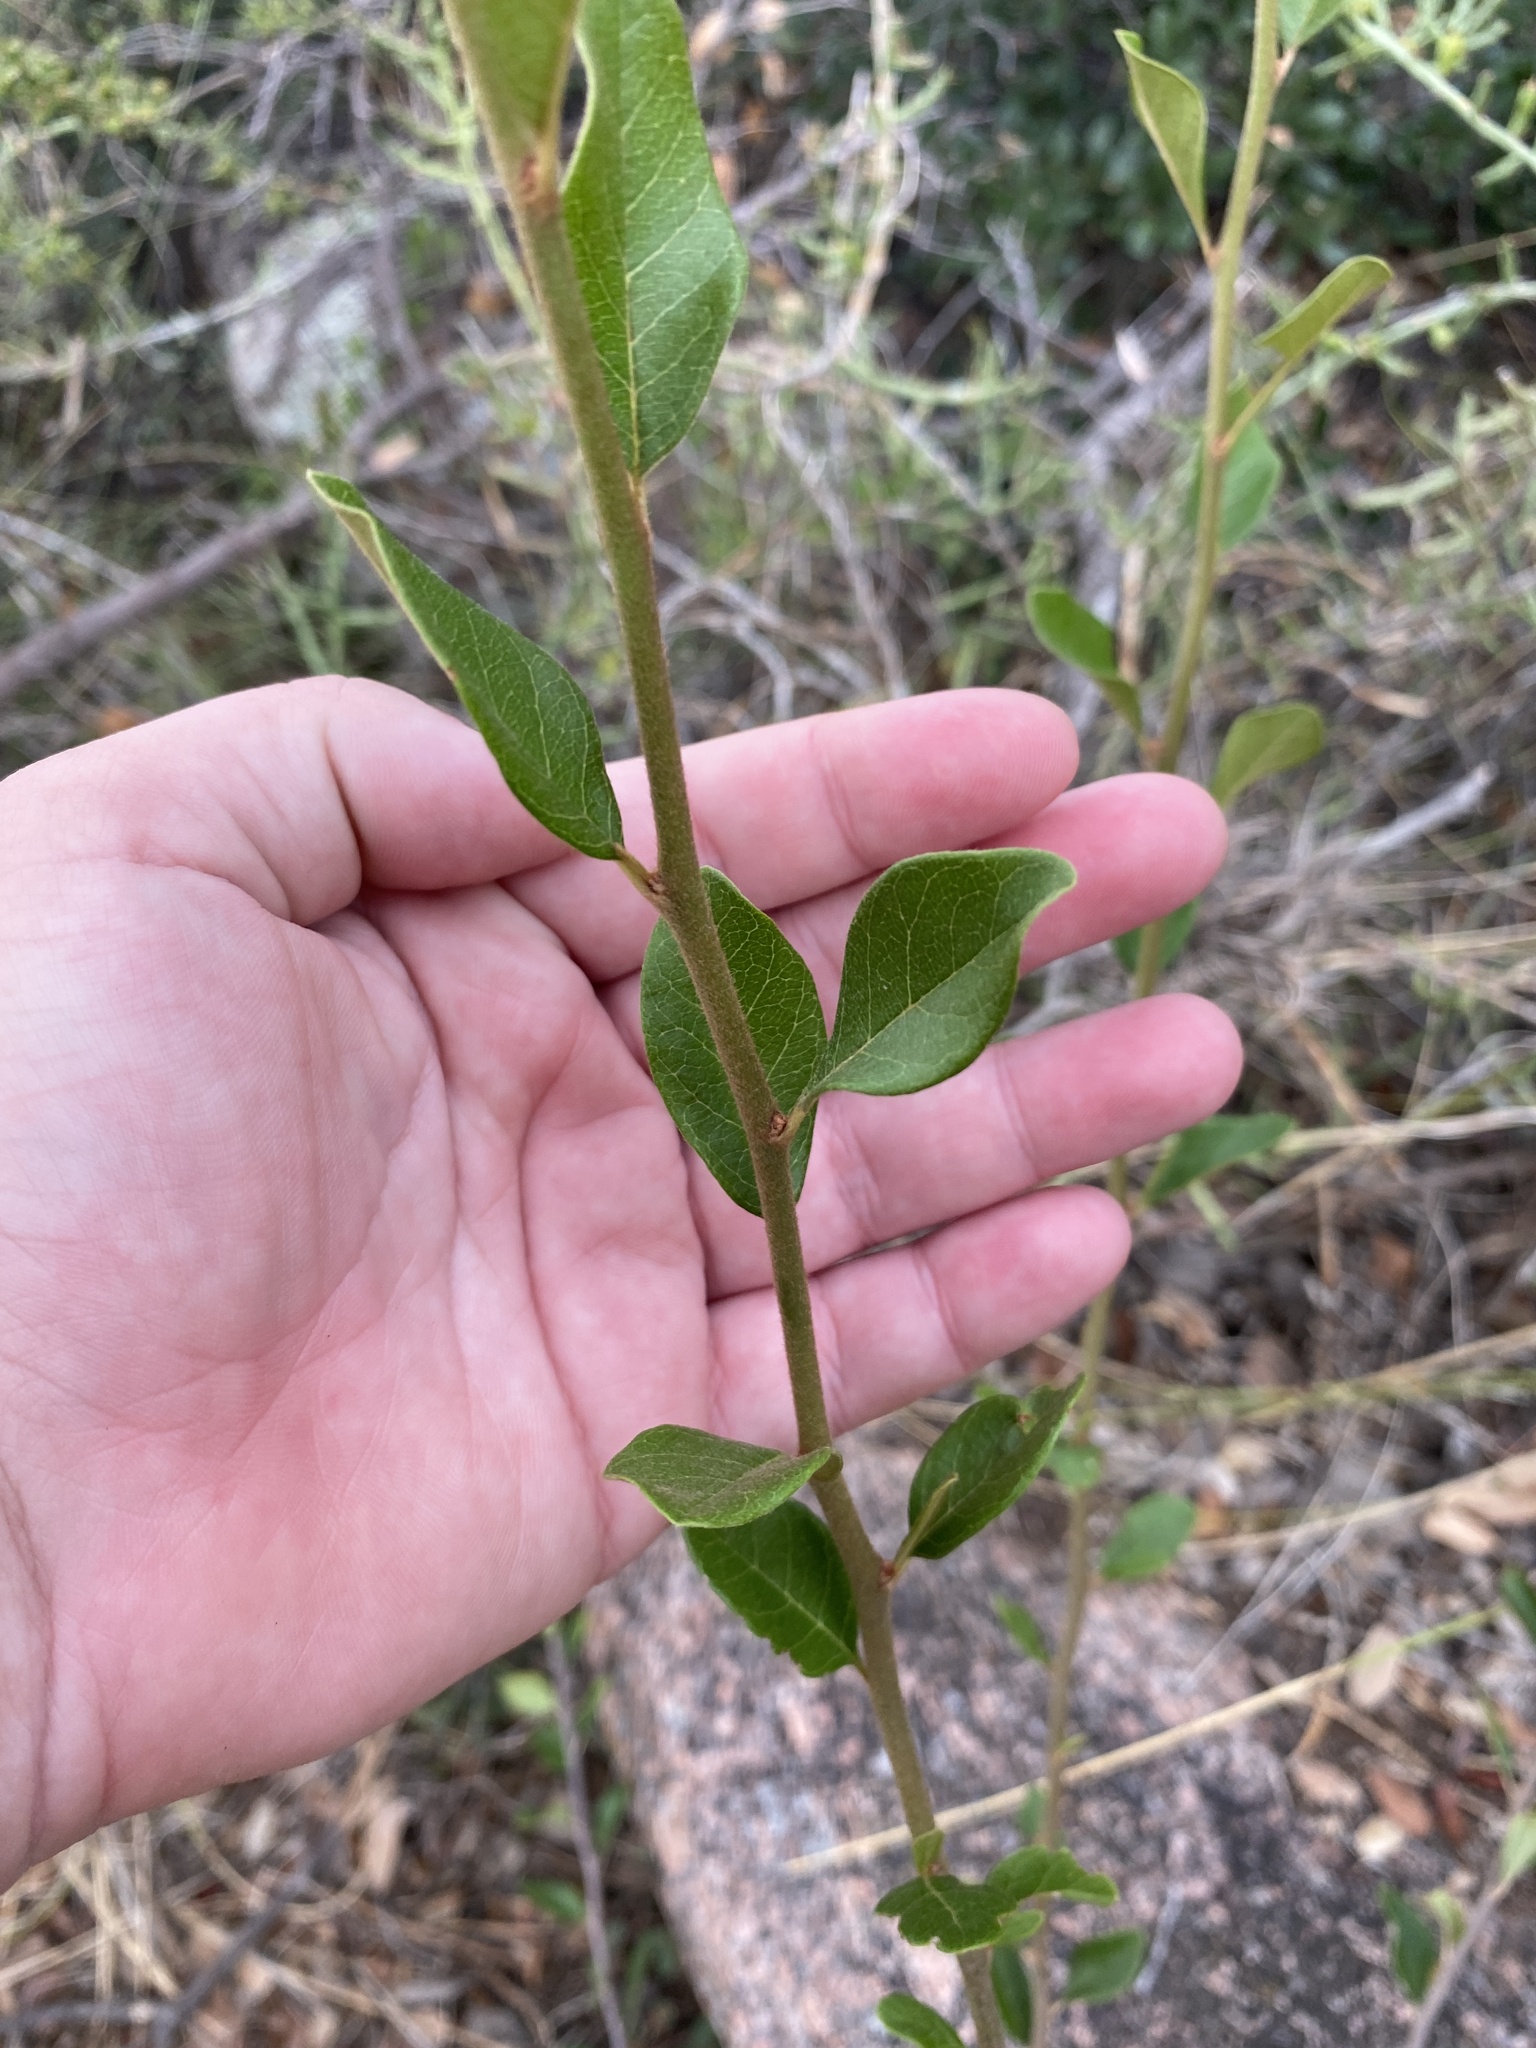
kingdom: Plantae
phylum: Tracheophyta
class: Magnoliopsida
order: Ericales
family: Sapotaceae
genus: Sideroxylon
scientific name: Sideroxylon lanuginosum
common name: Chittamwood
